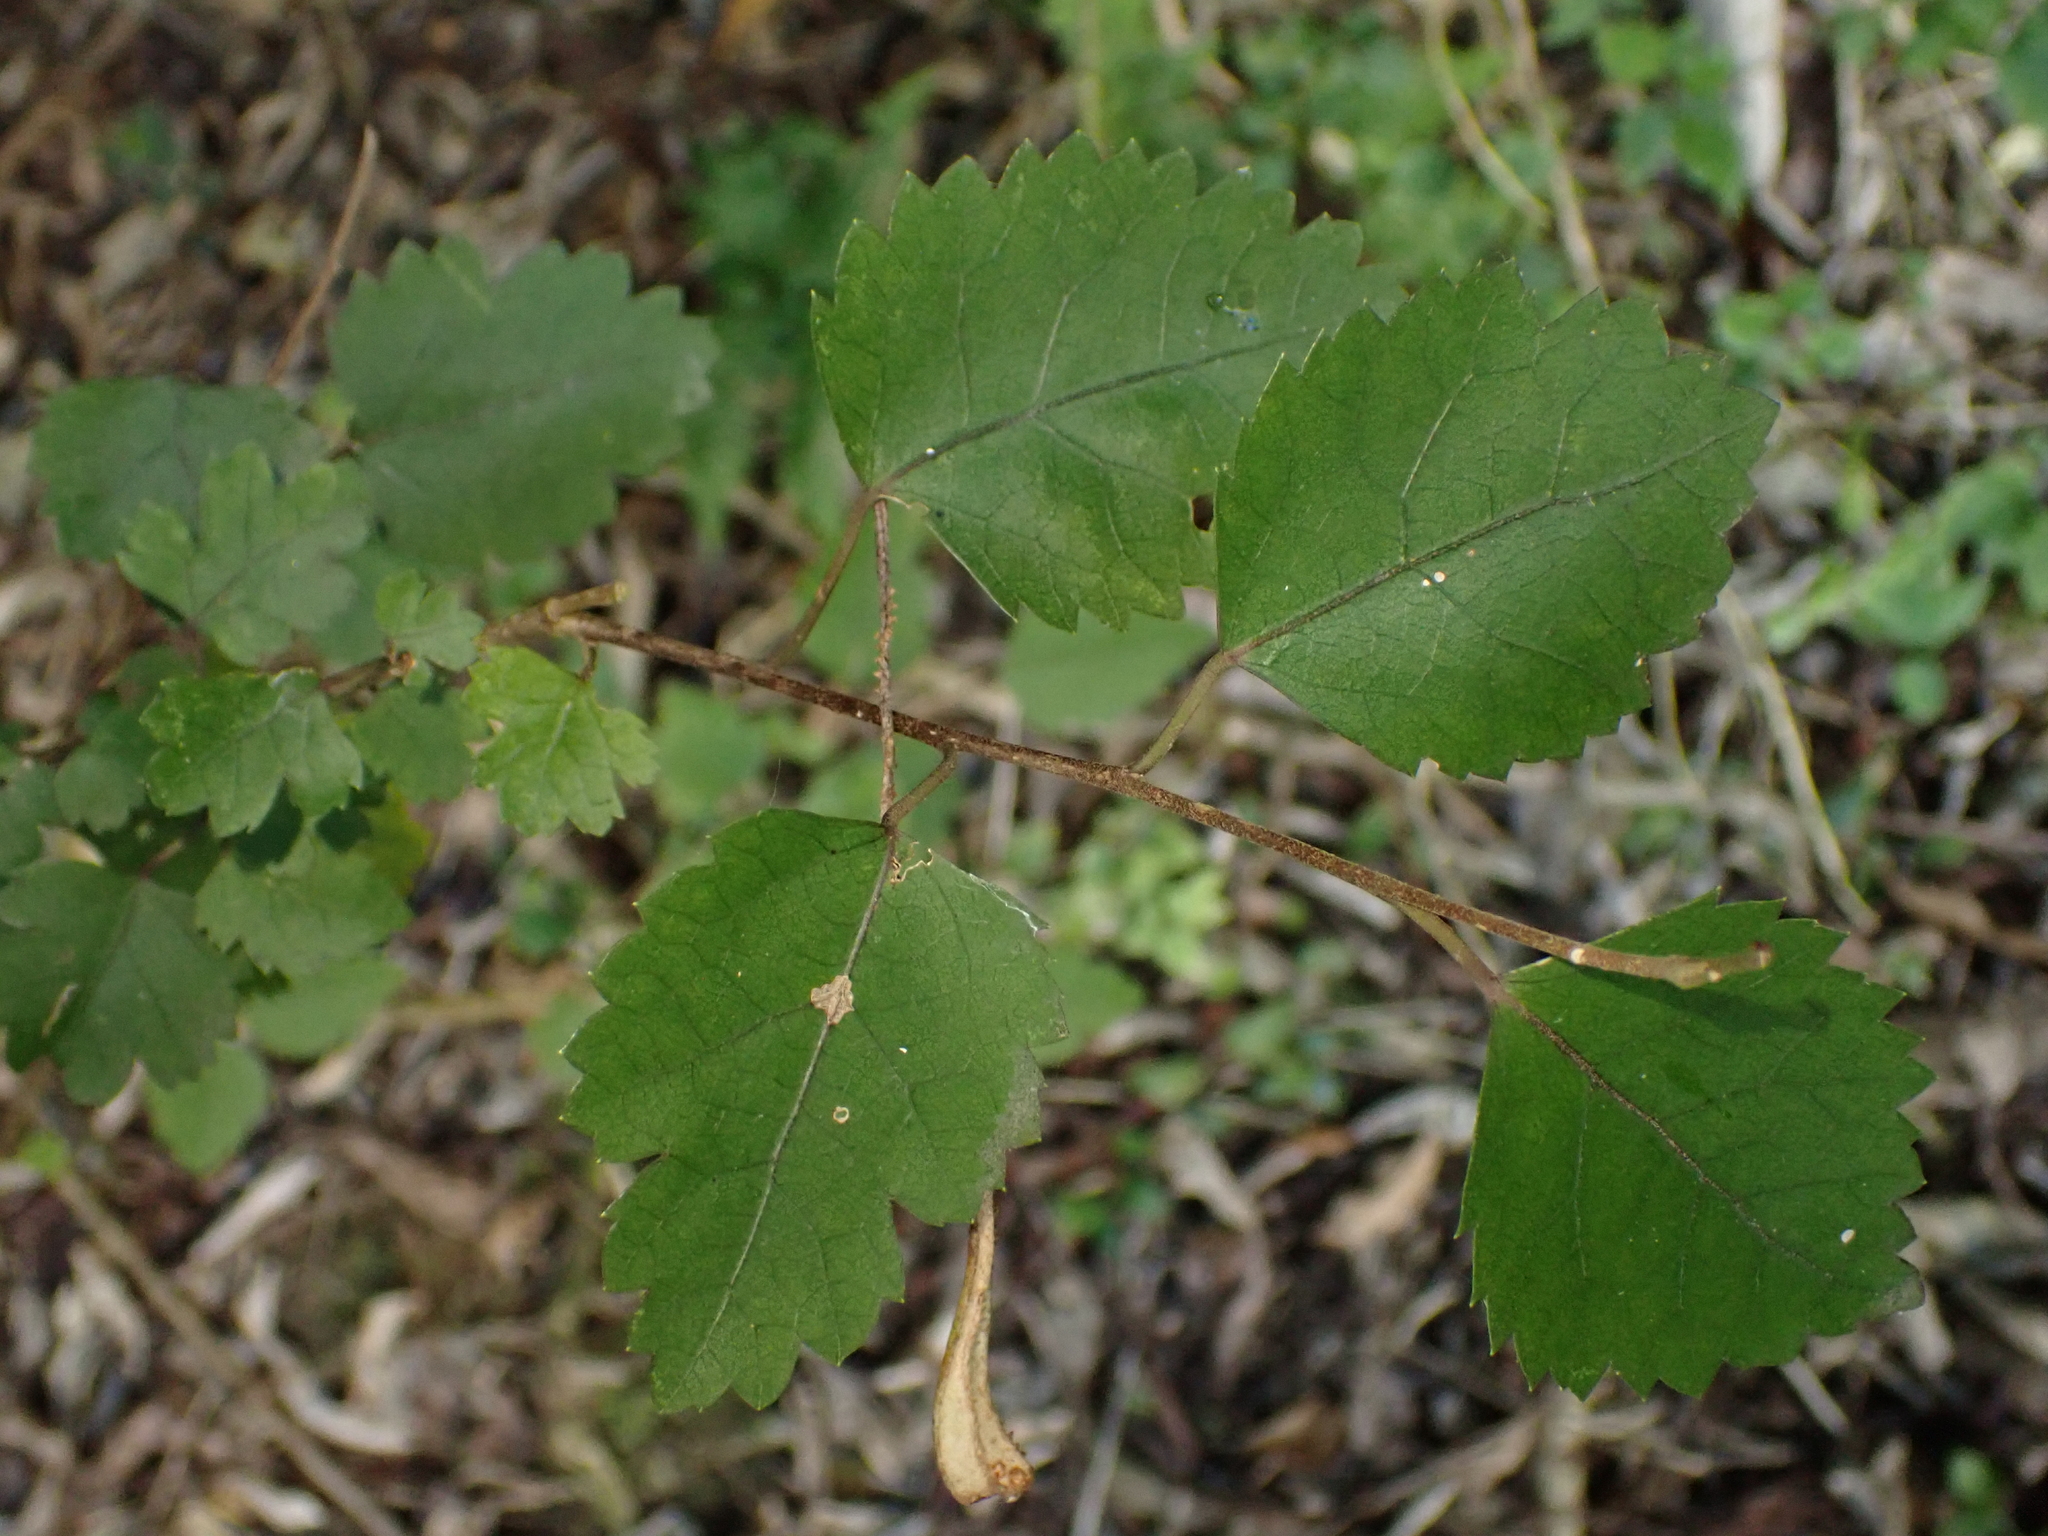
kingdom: Plantae
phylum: Tracheophyta
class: Magnoliopsida
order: Malvales
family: Malvaceae
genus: Hoheria
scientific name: Hoheria sexstylosa
